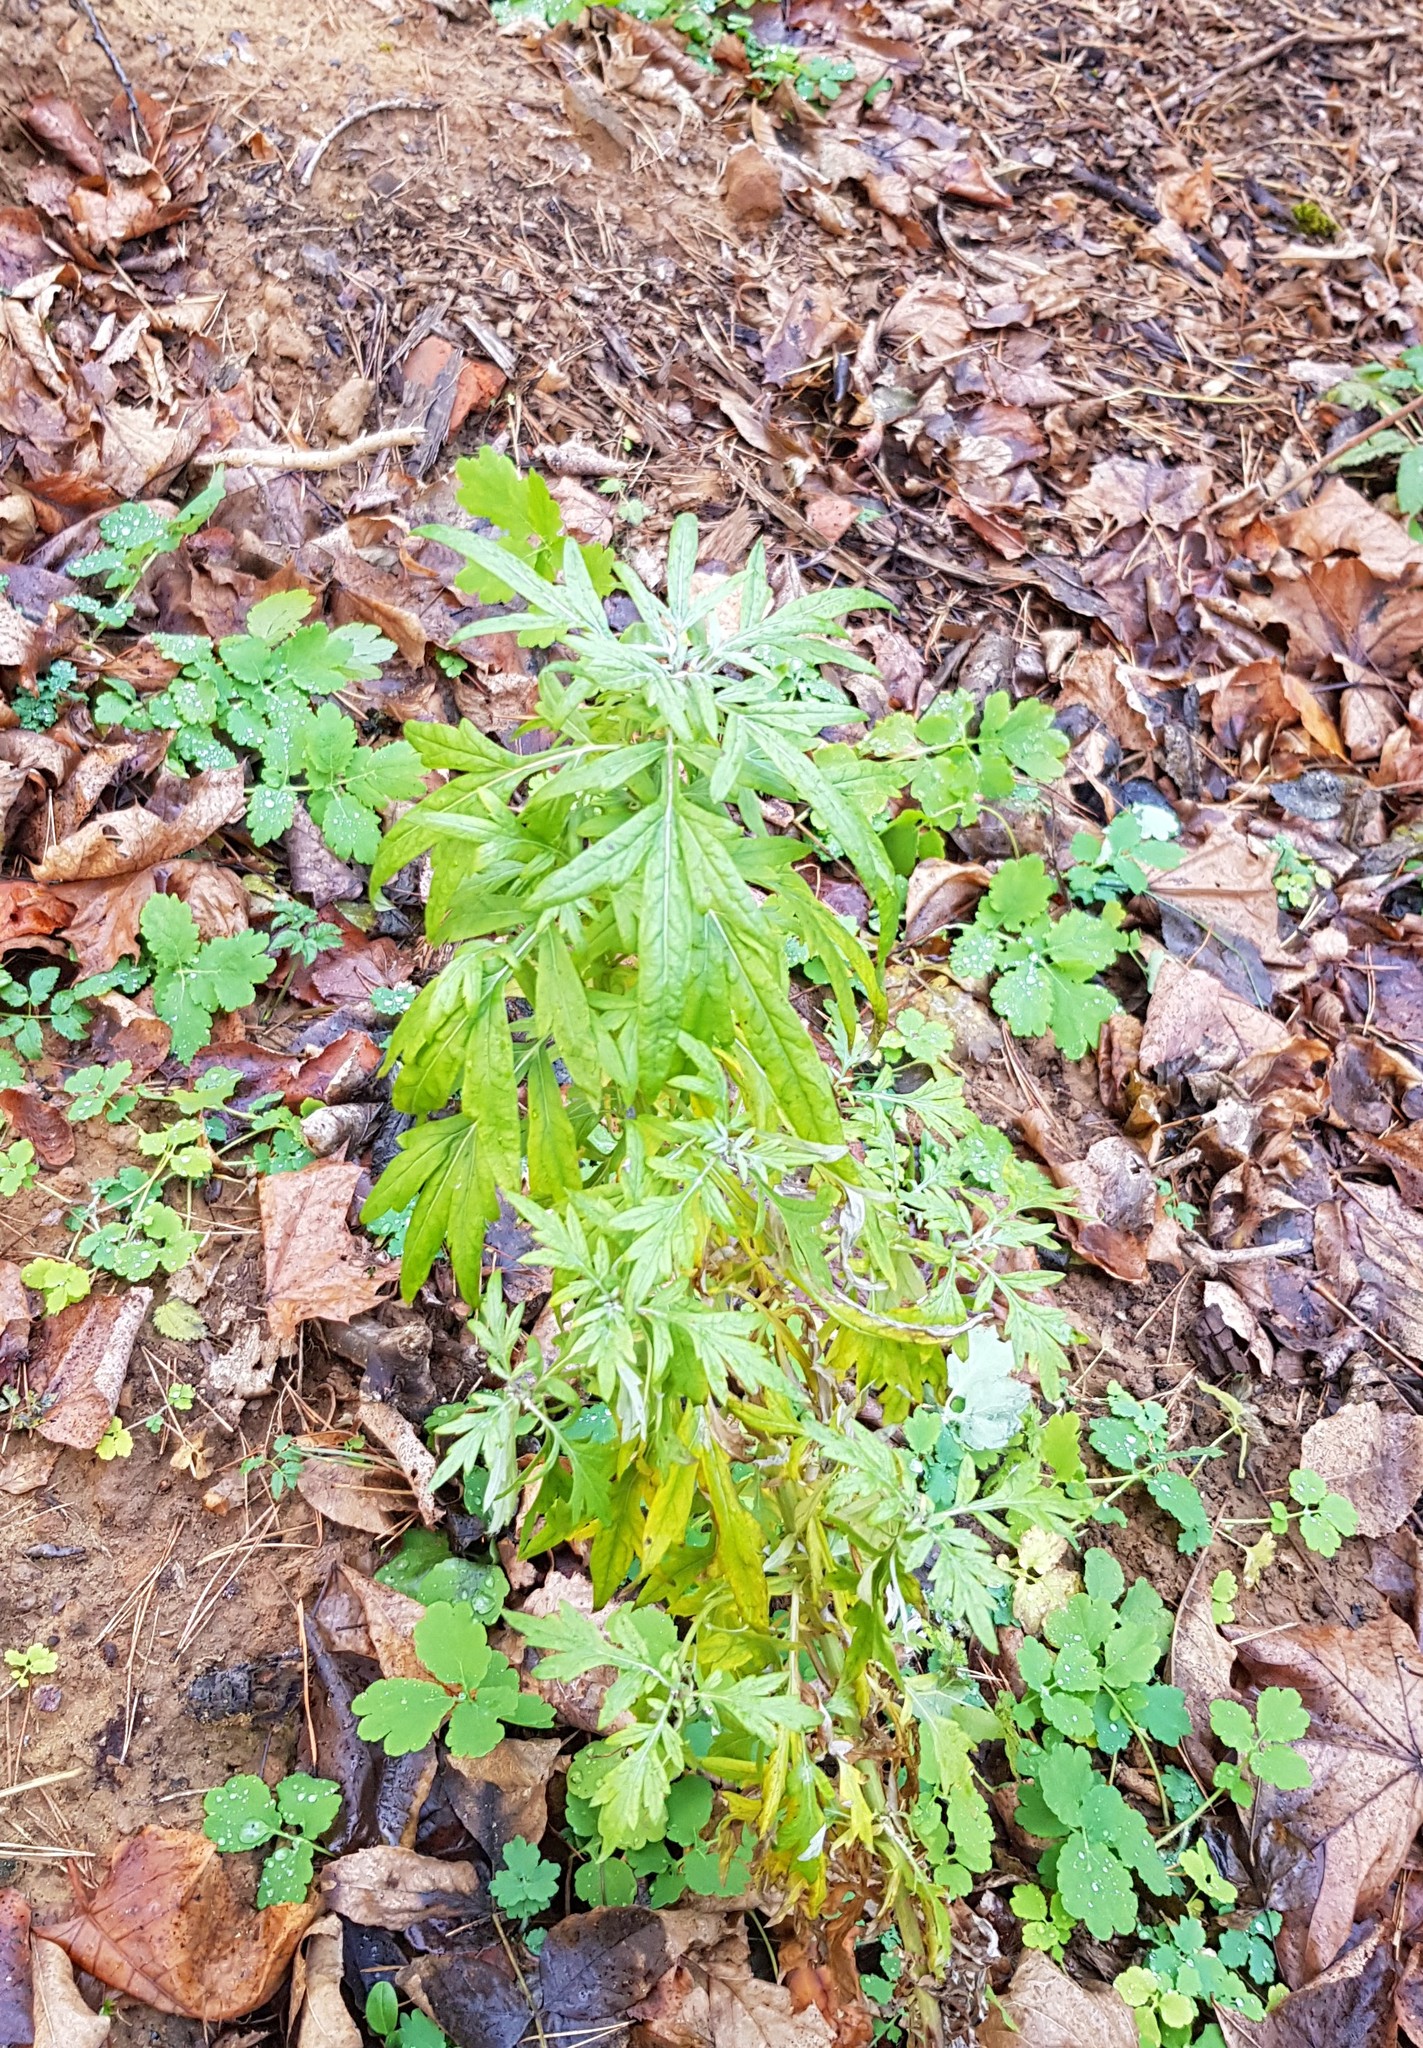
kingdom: Plantae
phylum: Tracheophyta
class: Magnoliopsida
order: Asterales
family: Asteraceae
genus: Artemisia
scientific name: Artemisia vulgaris
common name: Mugwort
